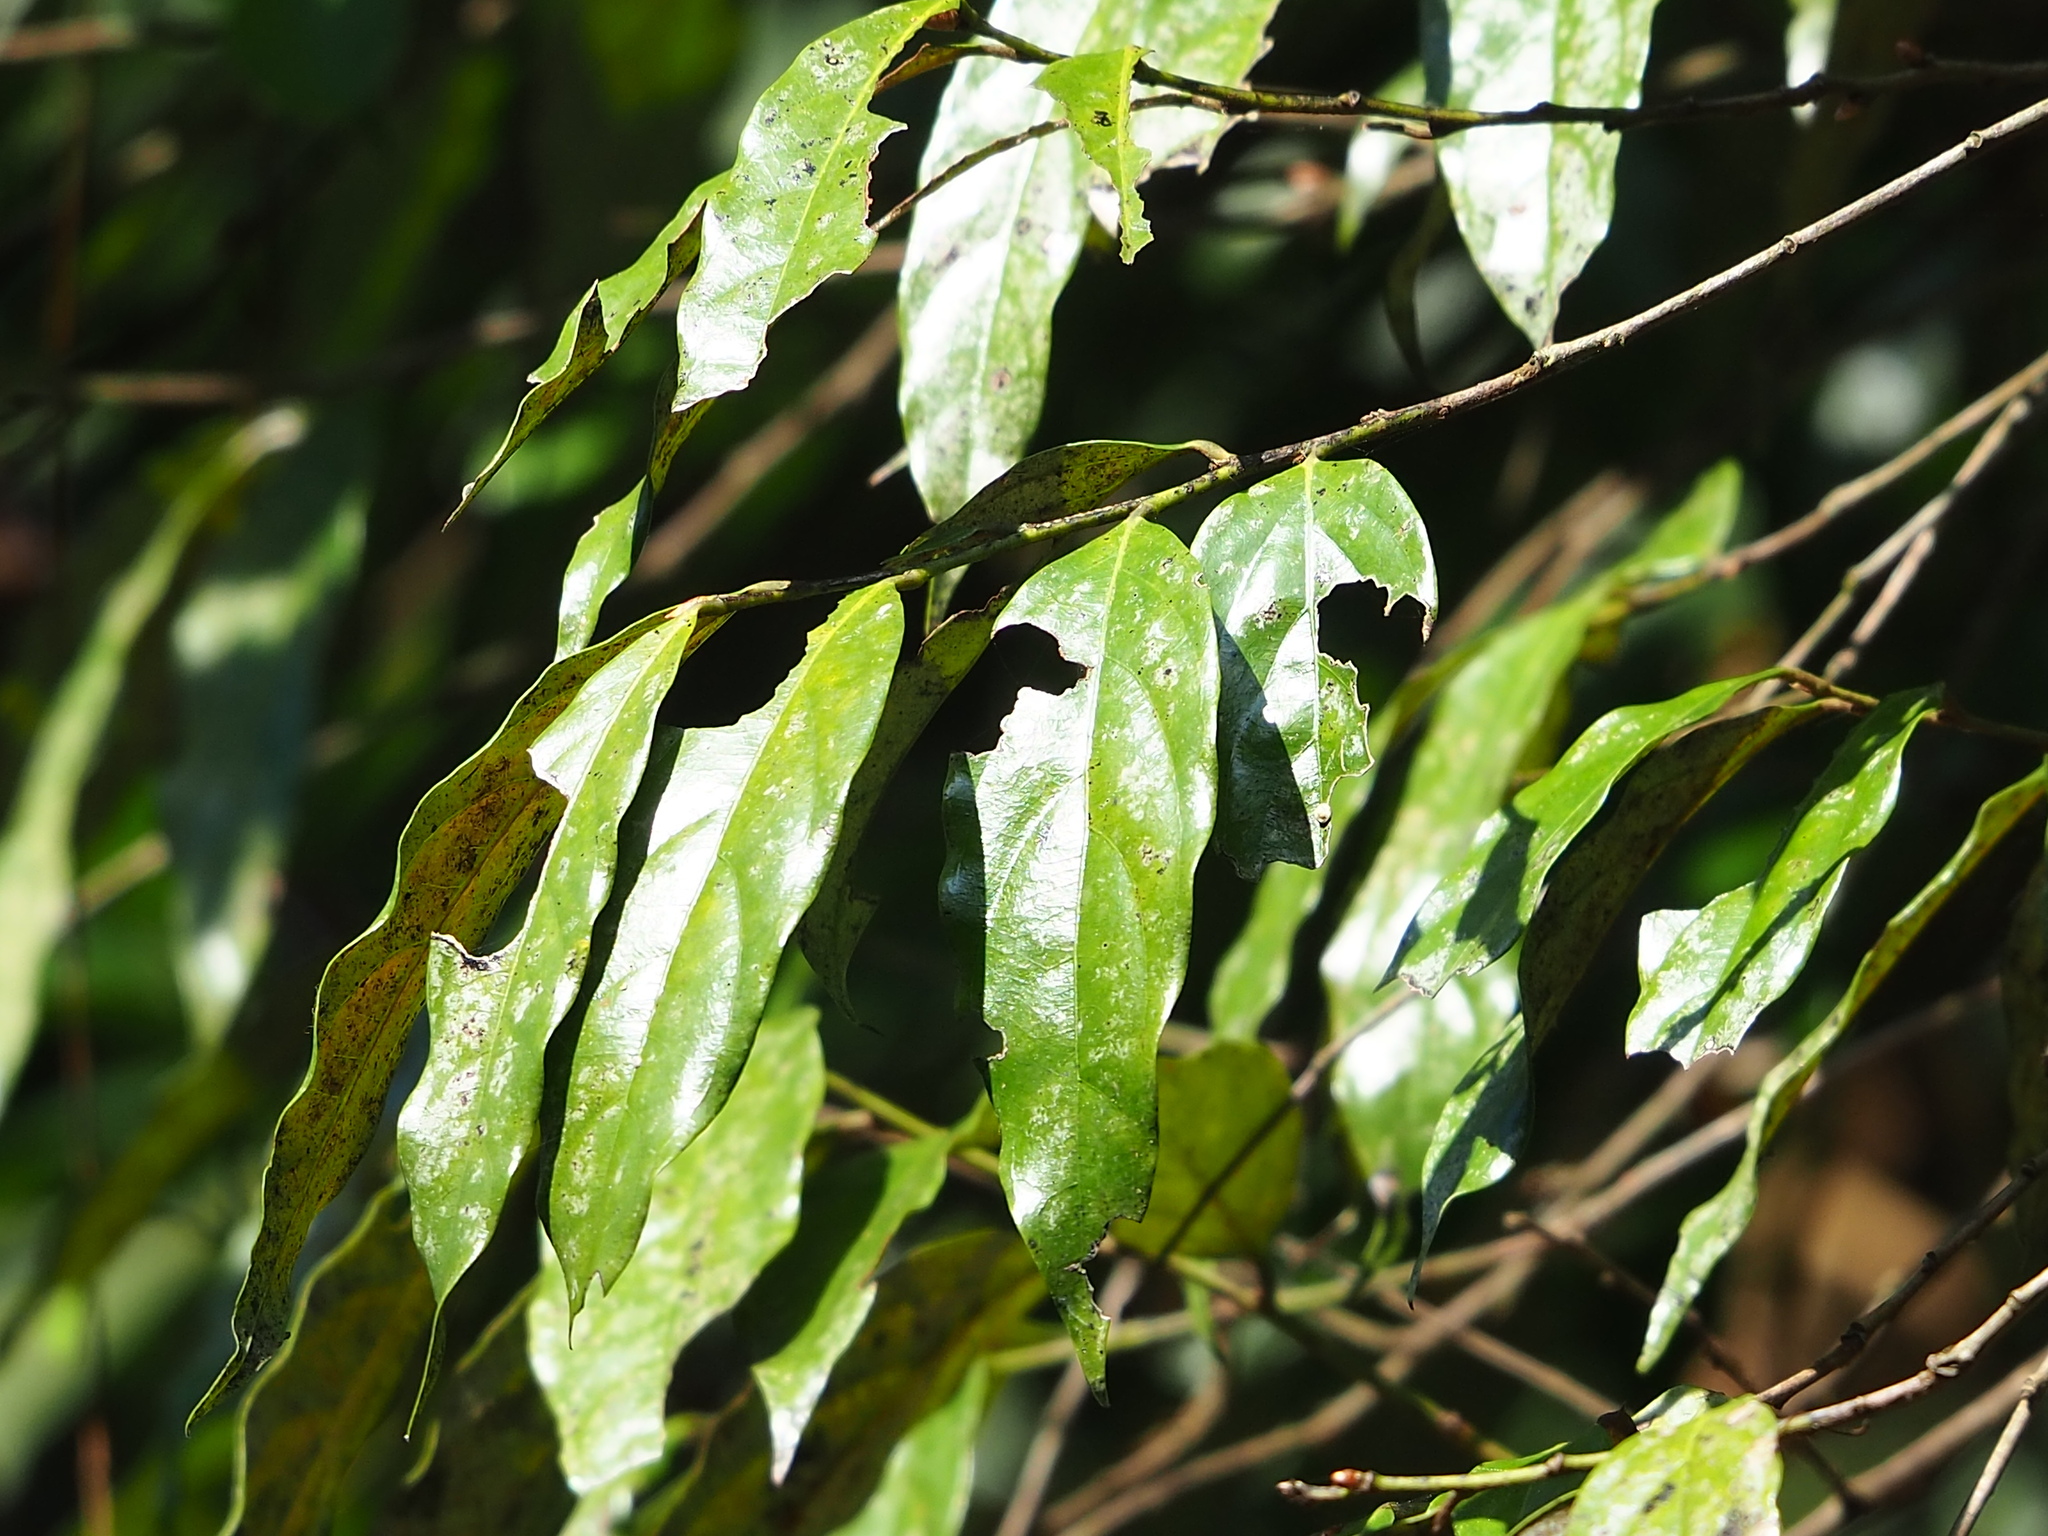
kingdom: Plantae
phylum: Tracheophyta
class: Magnoliopsida
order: Ericales
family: Ebenaceae
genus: Diospyros
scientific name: Diospyros eriantha
